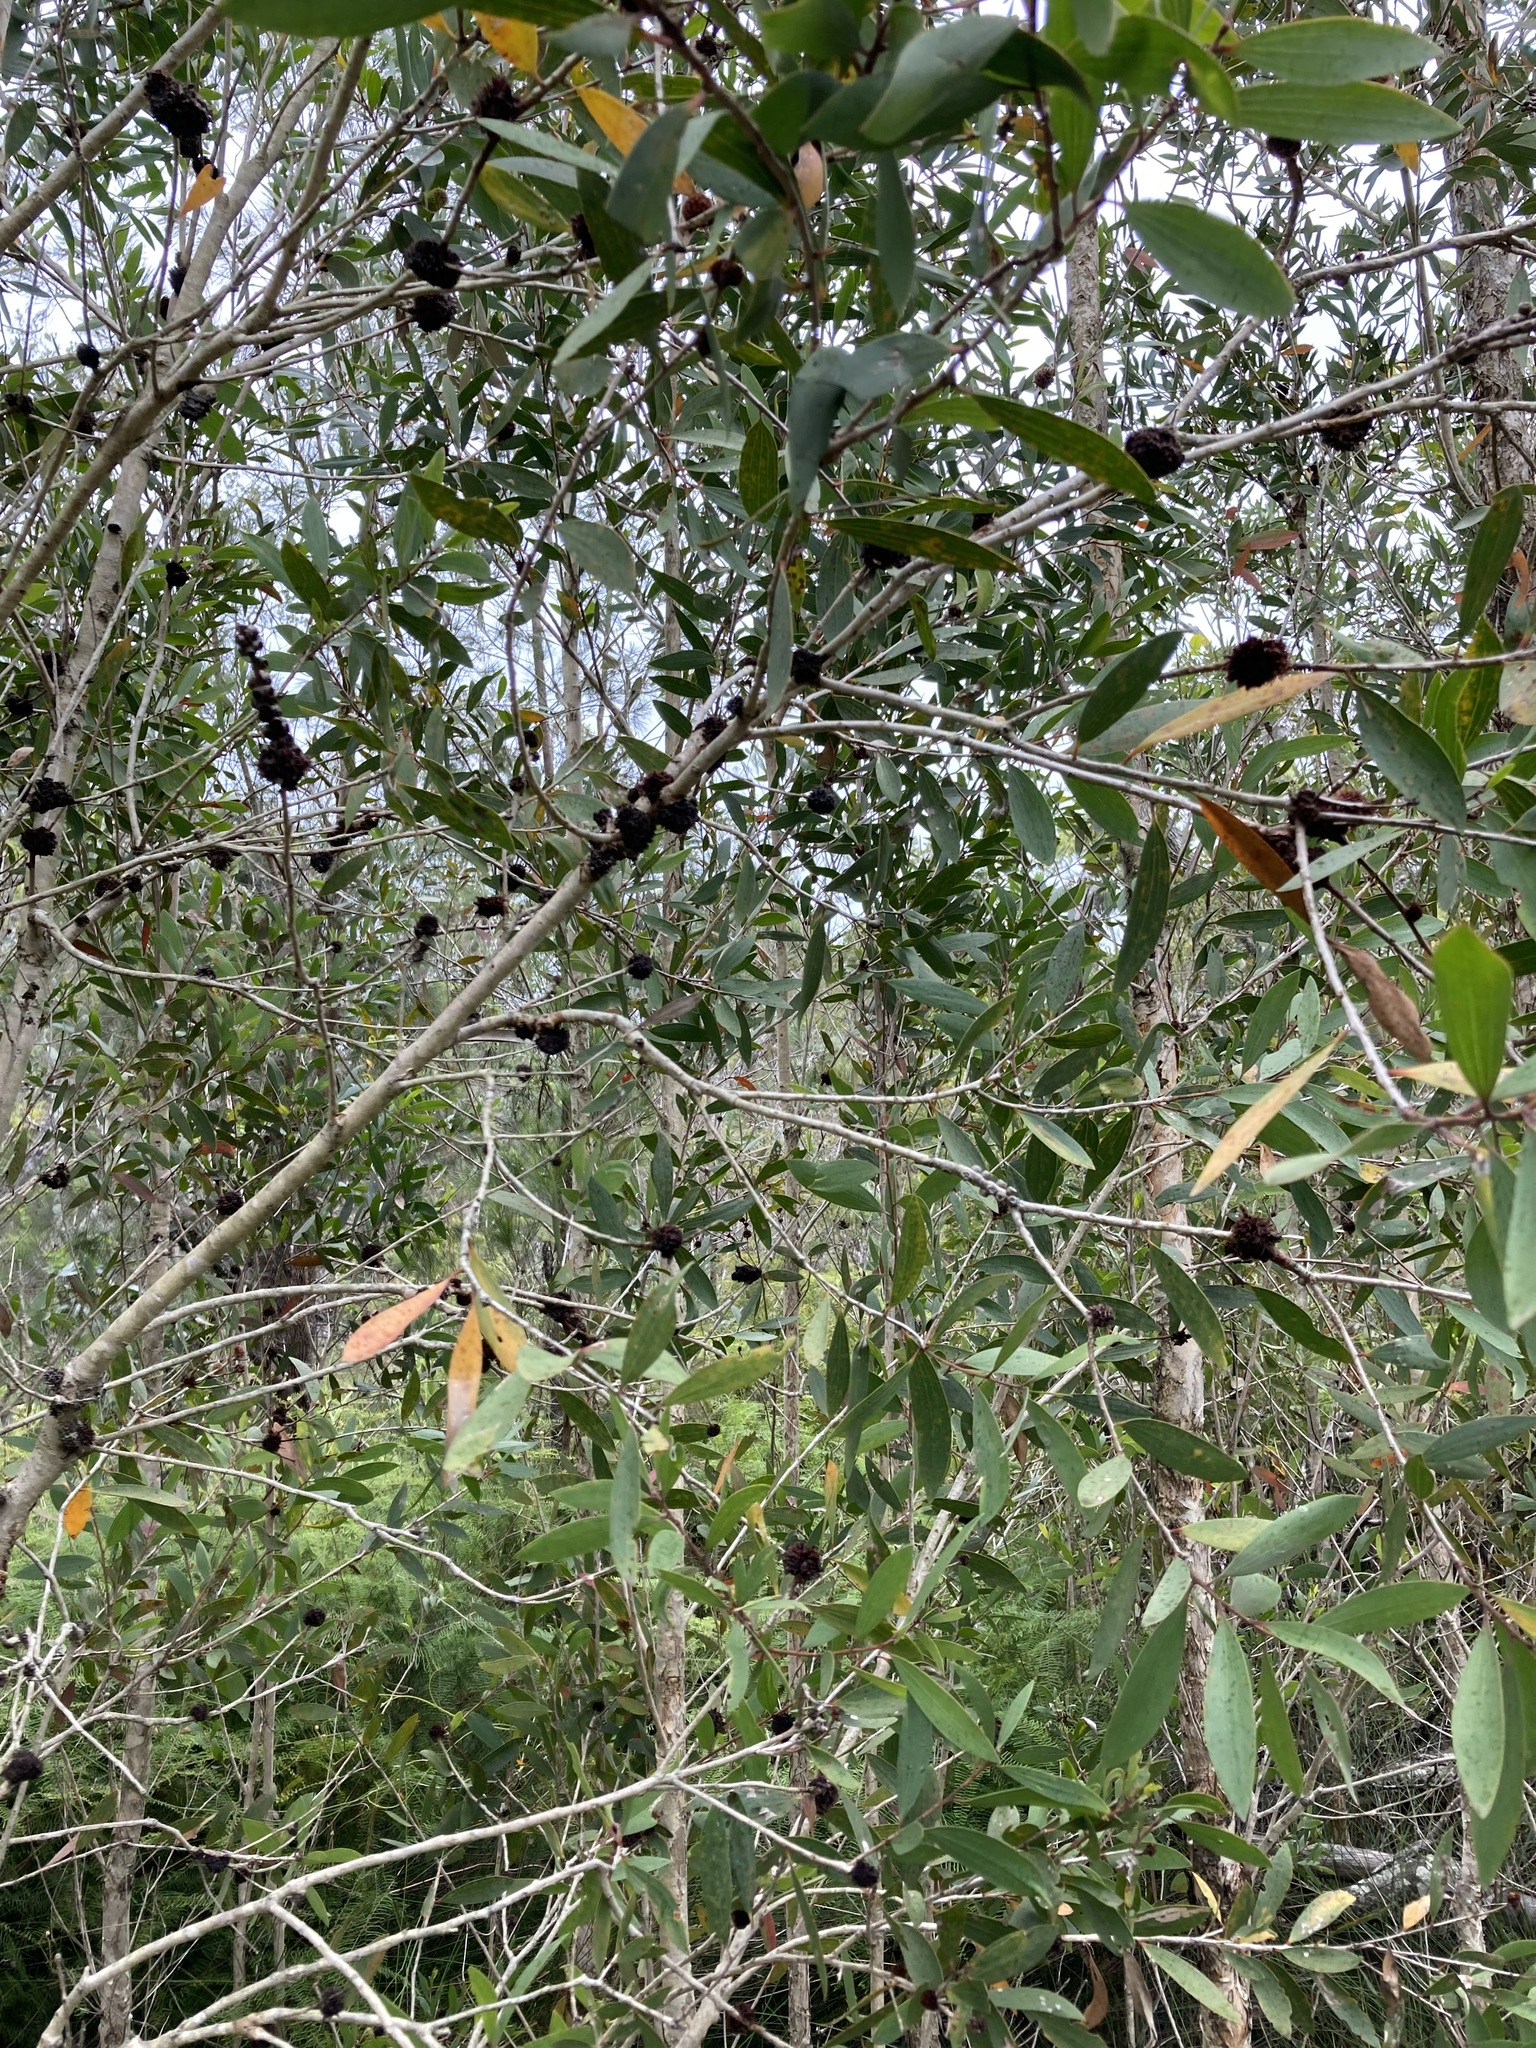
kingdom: Animalia
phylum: Arthropoda
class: Insecta
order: Hemiptera
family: Beesoniidae
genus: Beesonia
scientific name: Beesonia ferrugineus
